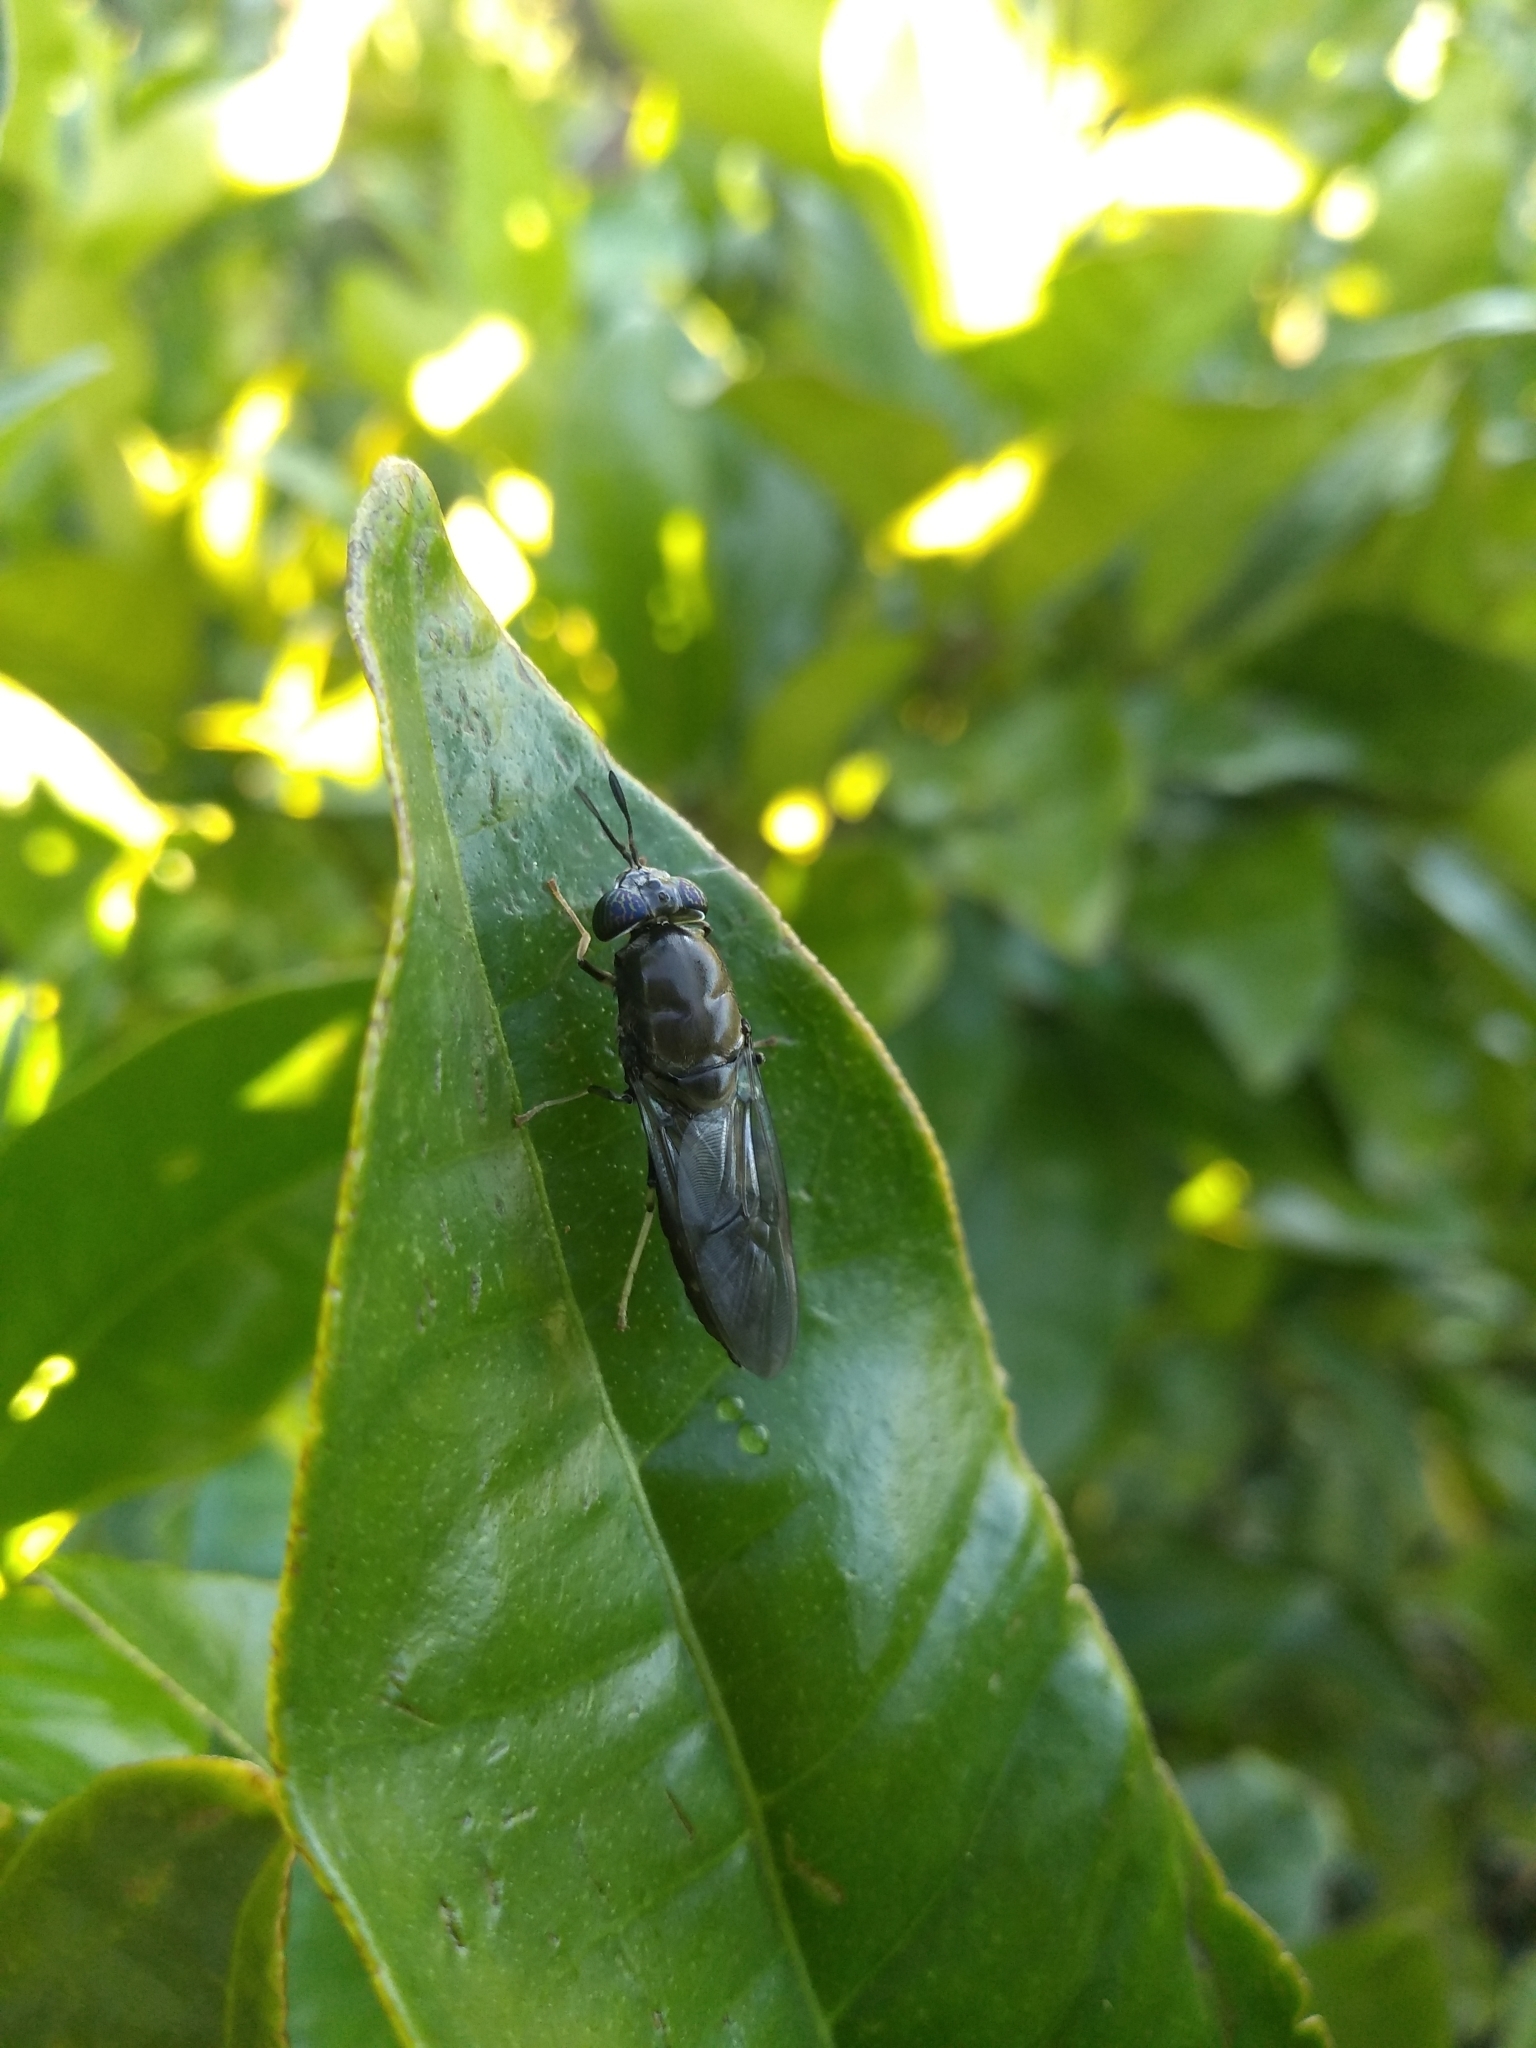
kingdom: Animalia
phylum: Arthropoda
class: Insecta
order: Diptera
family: Stratiomyidae
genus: Hermetia
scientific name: Hermetia illucens
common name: Black soldier fly
